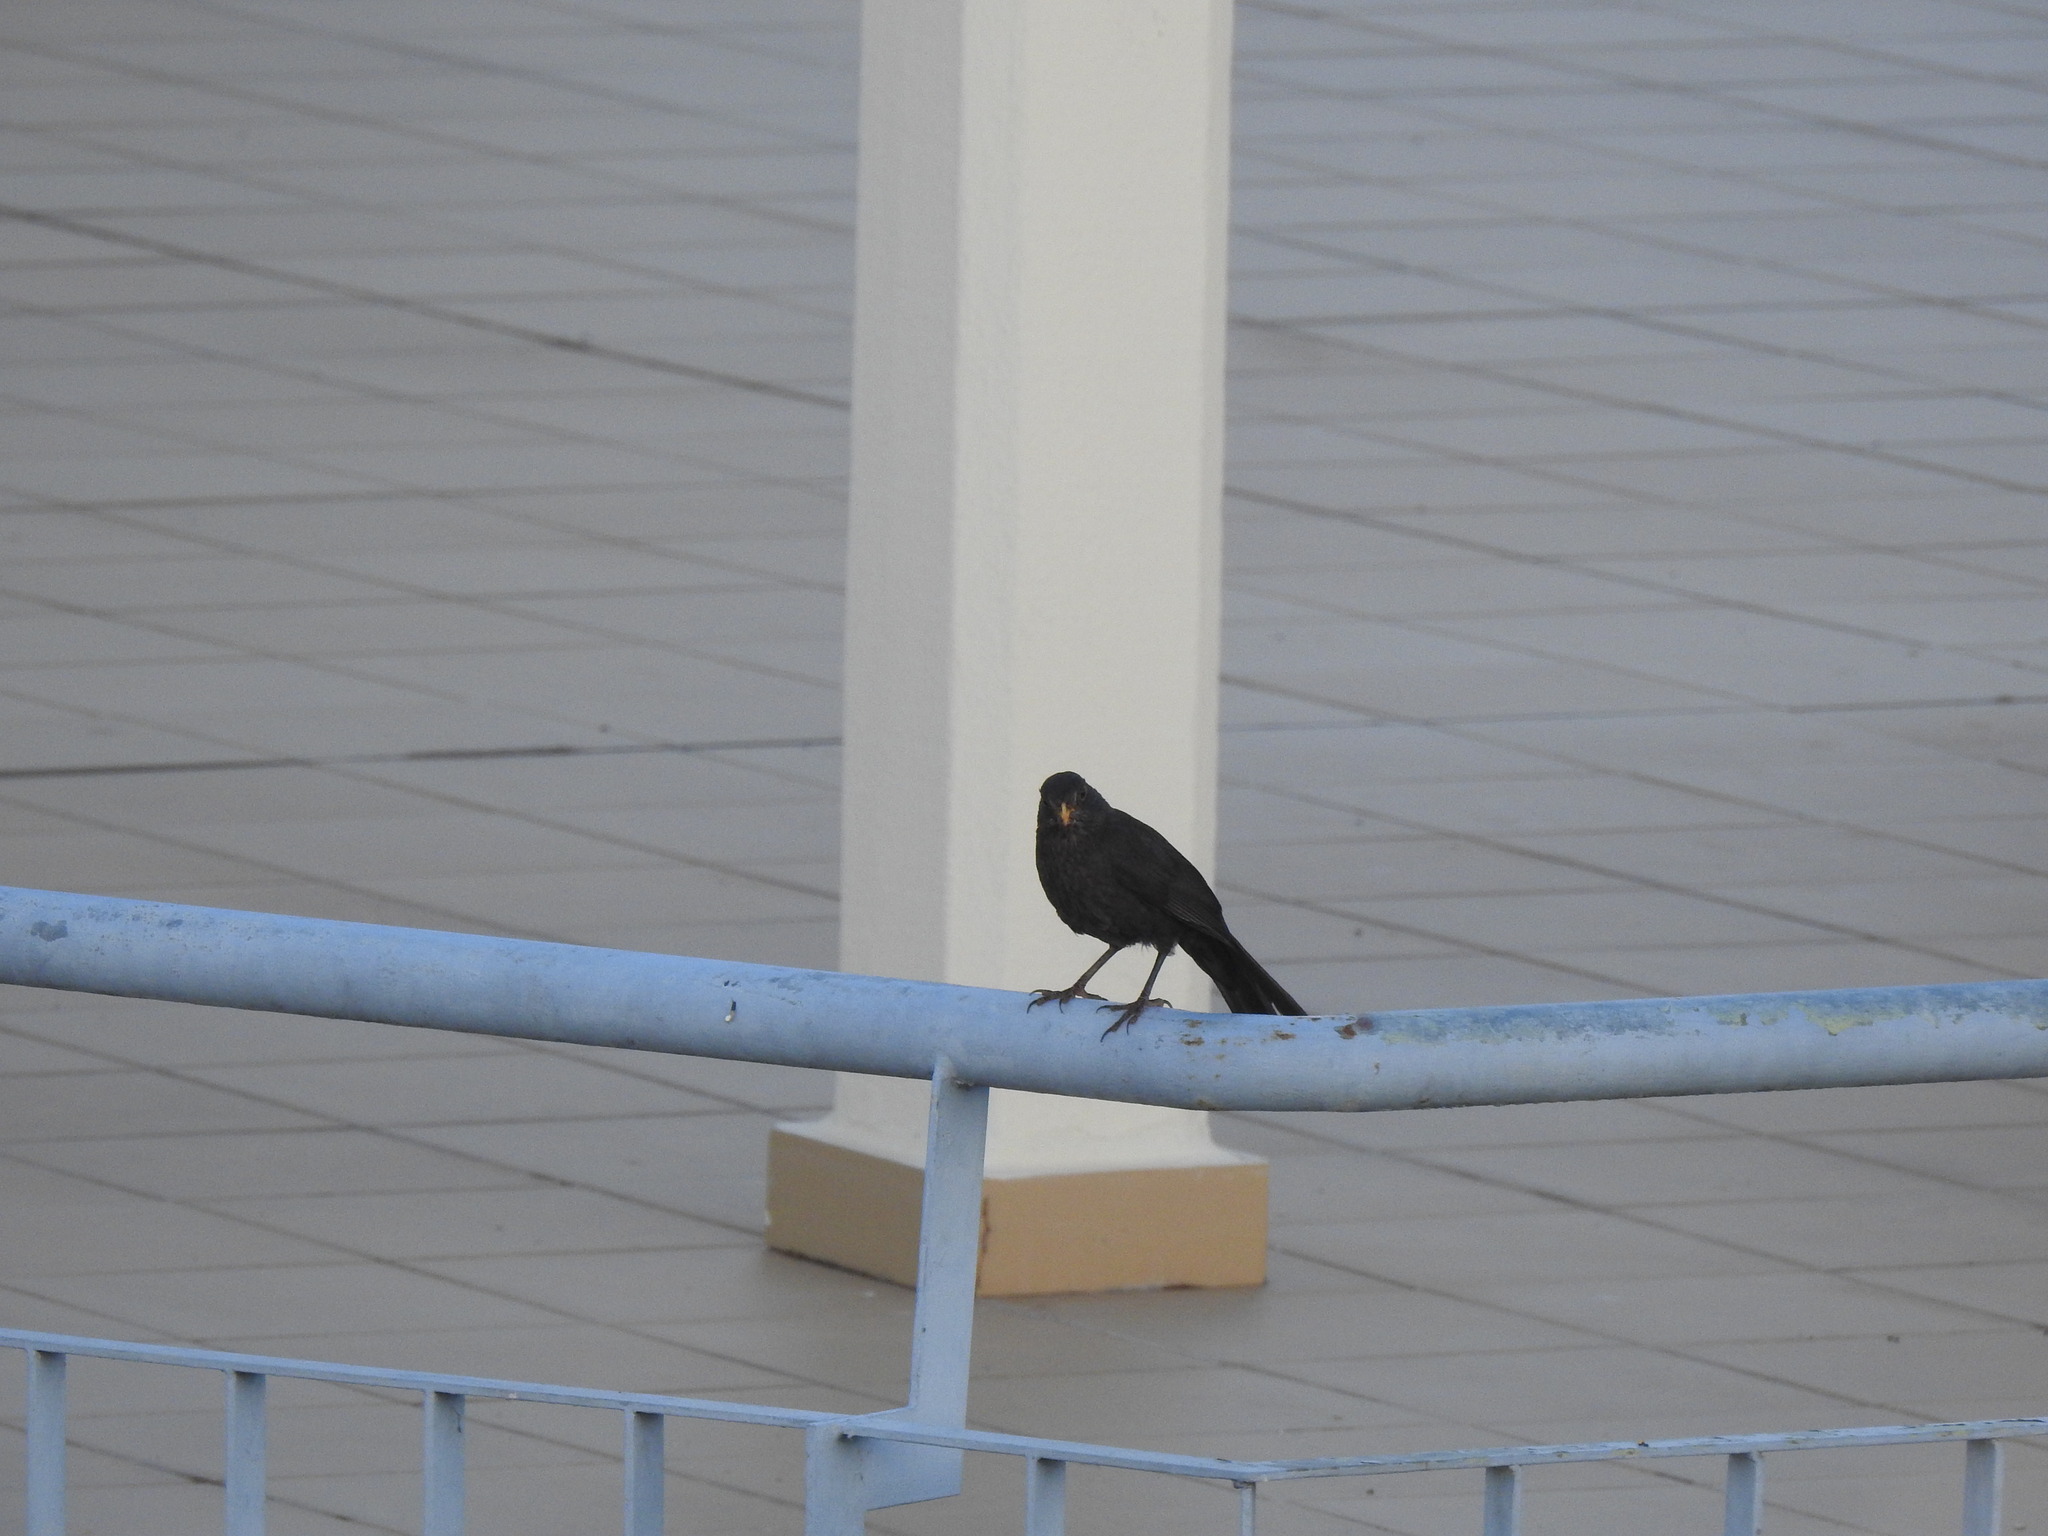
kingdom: Animalia
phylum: Chordata
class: Aves
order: Passeriformes
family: Turdidae
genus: Turdus
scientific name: Turdus merula
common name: Common blackbird
